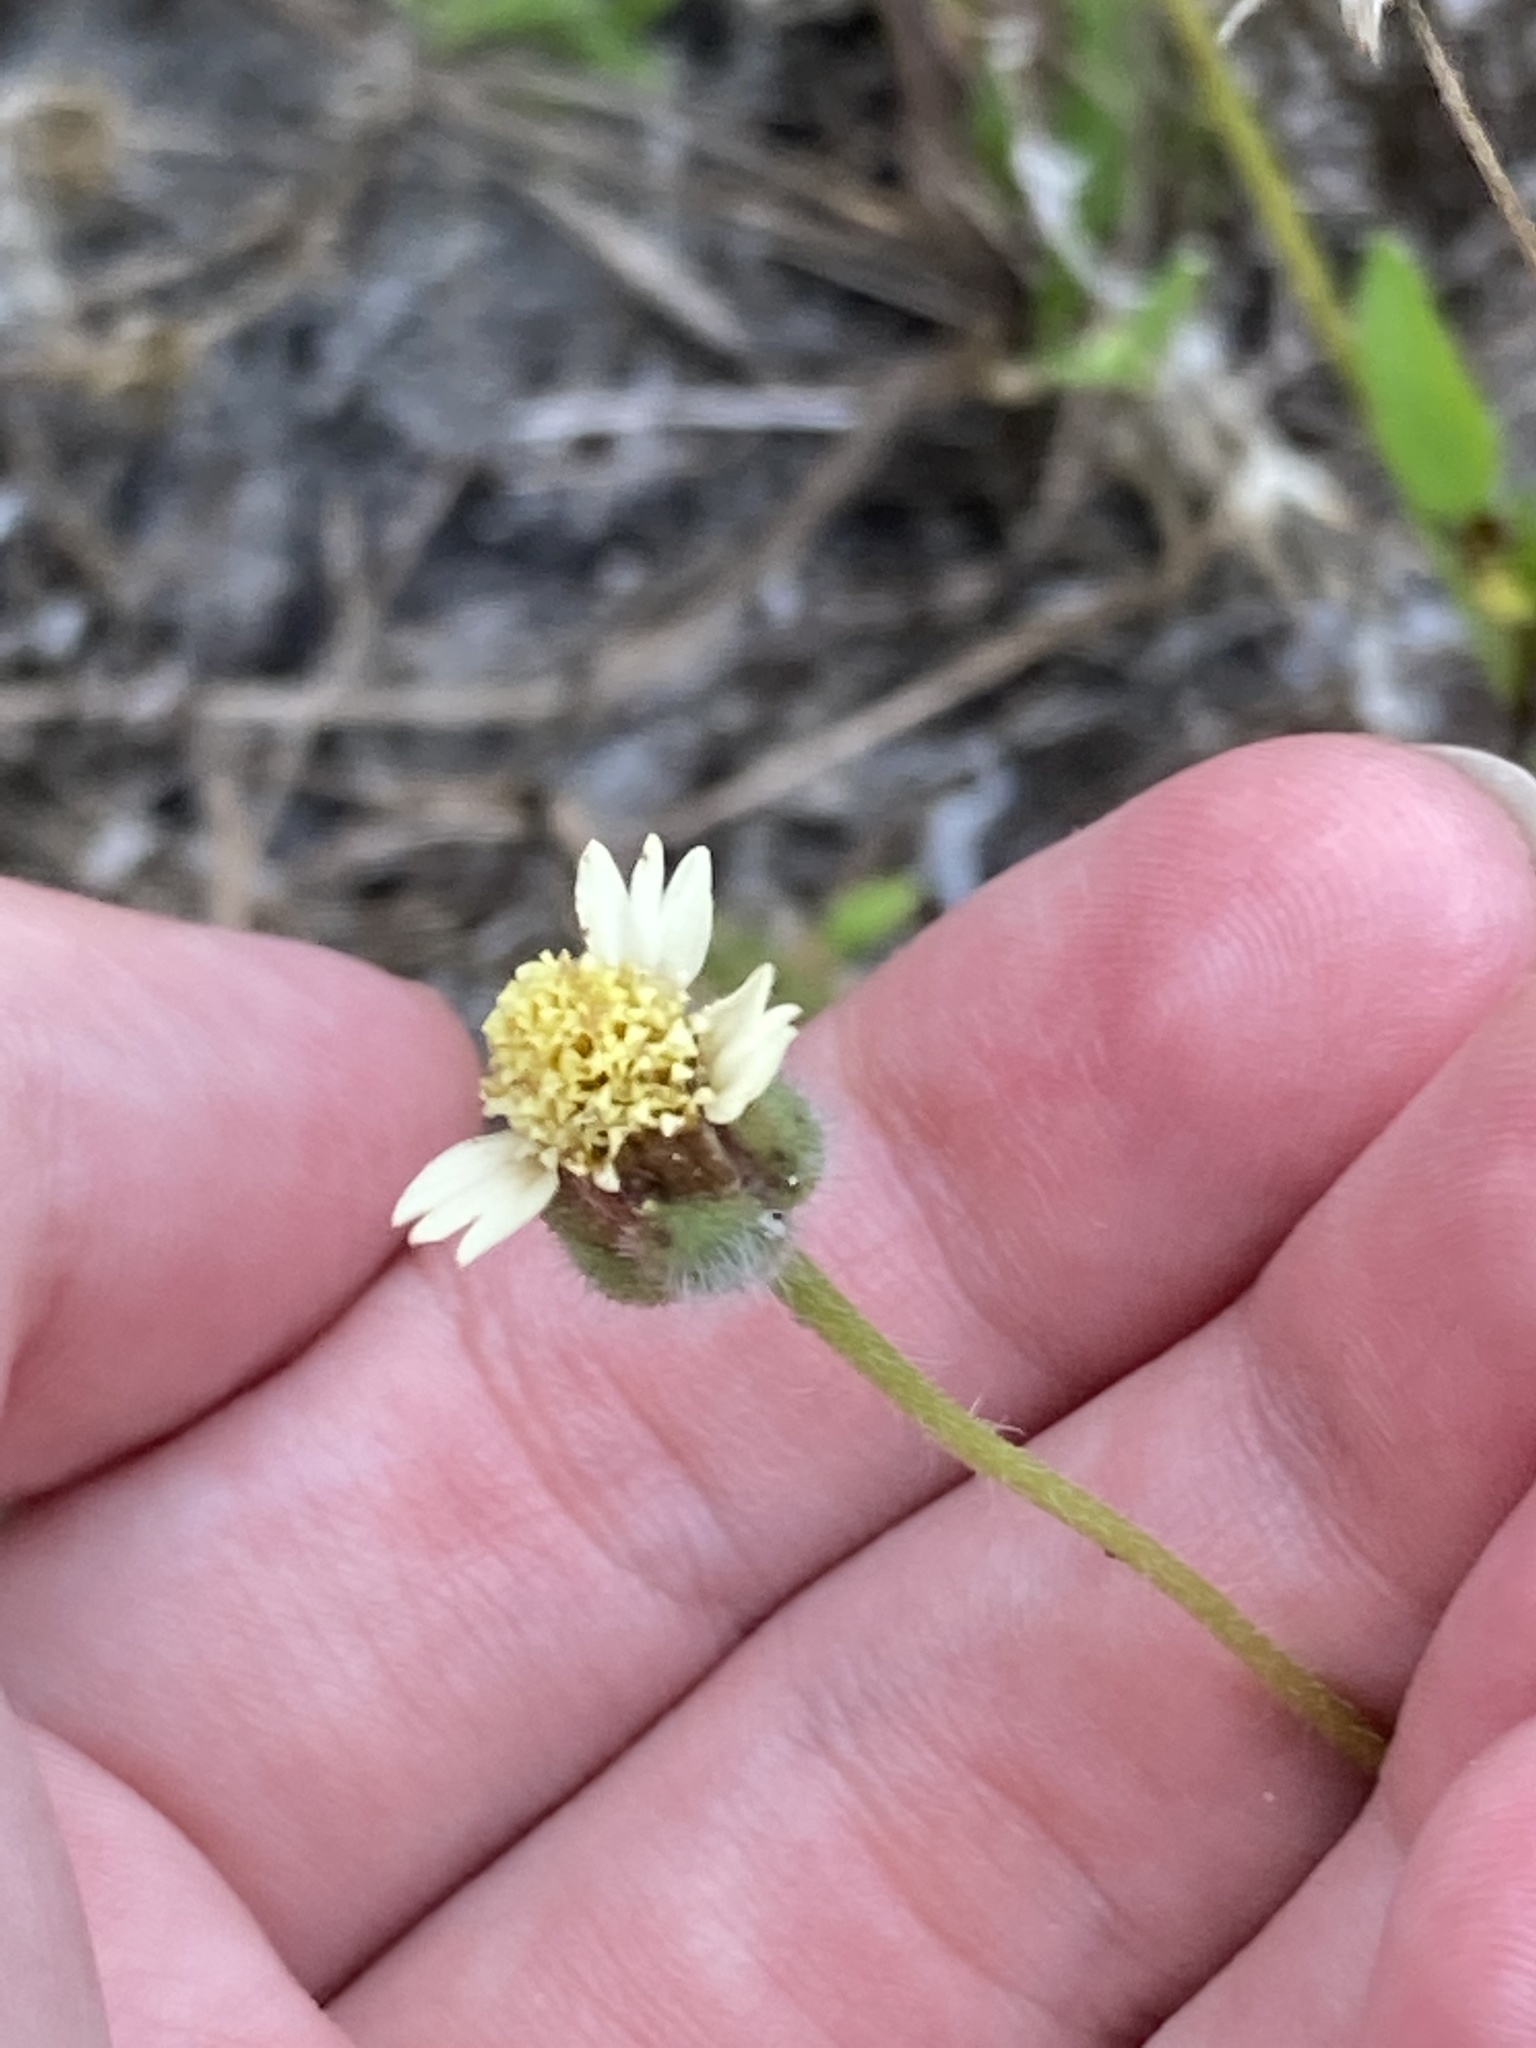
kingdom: Plantae
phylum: Tracheophyta
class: Magnoliopsida
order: Asterales
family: Asteraceae
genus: Tridax
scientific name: Tridax procumbens
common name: Coatbuttons
